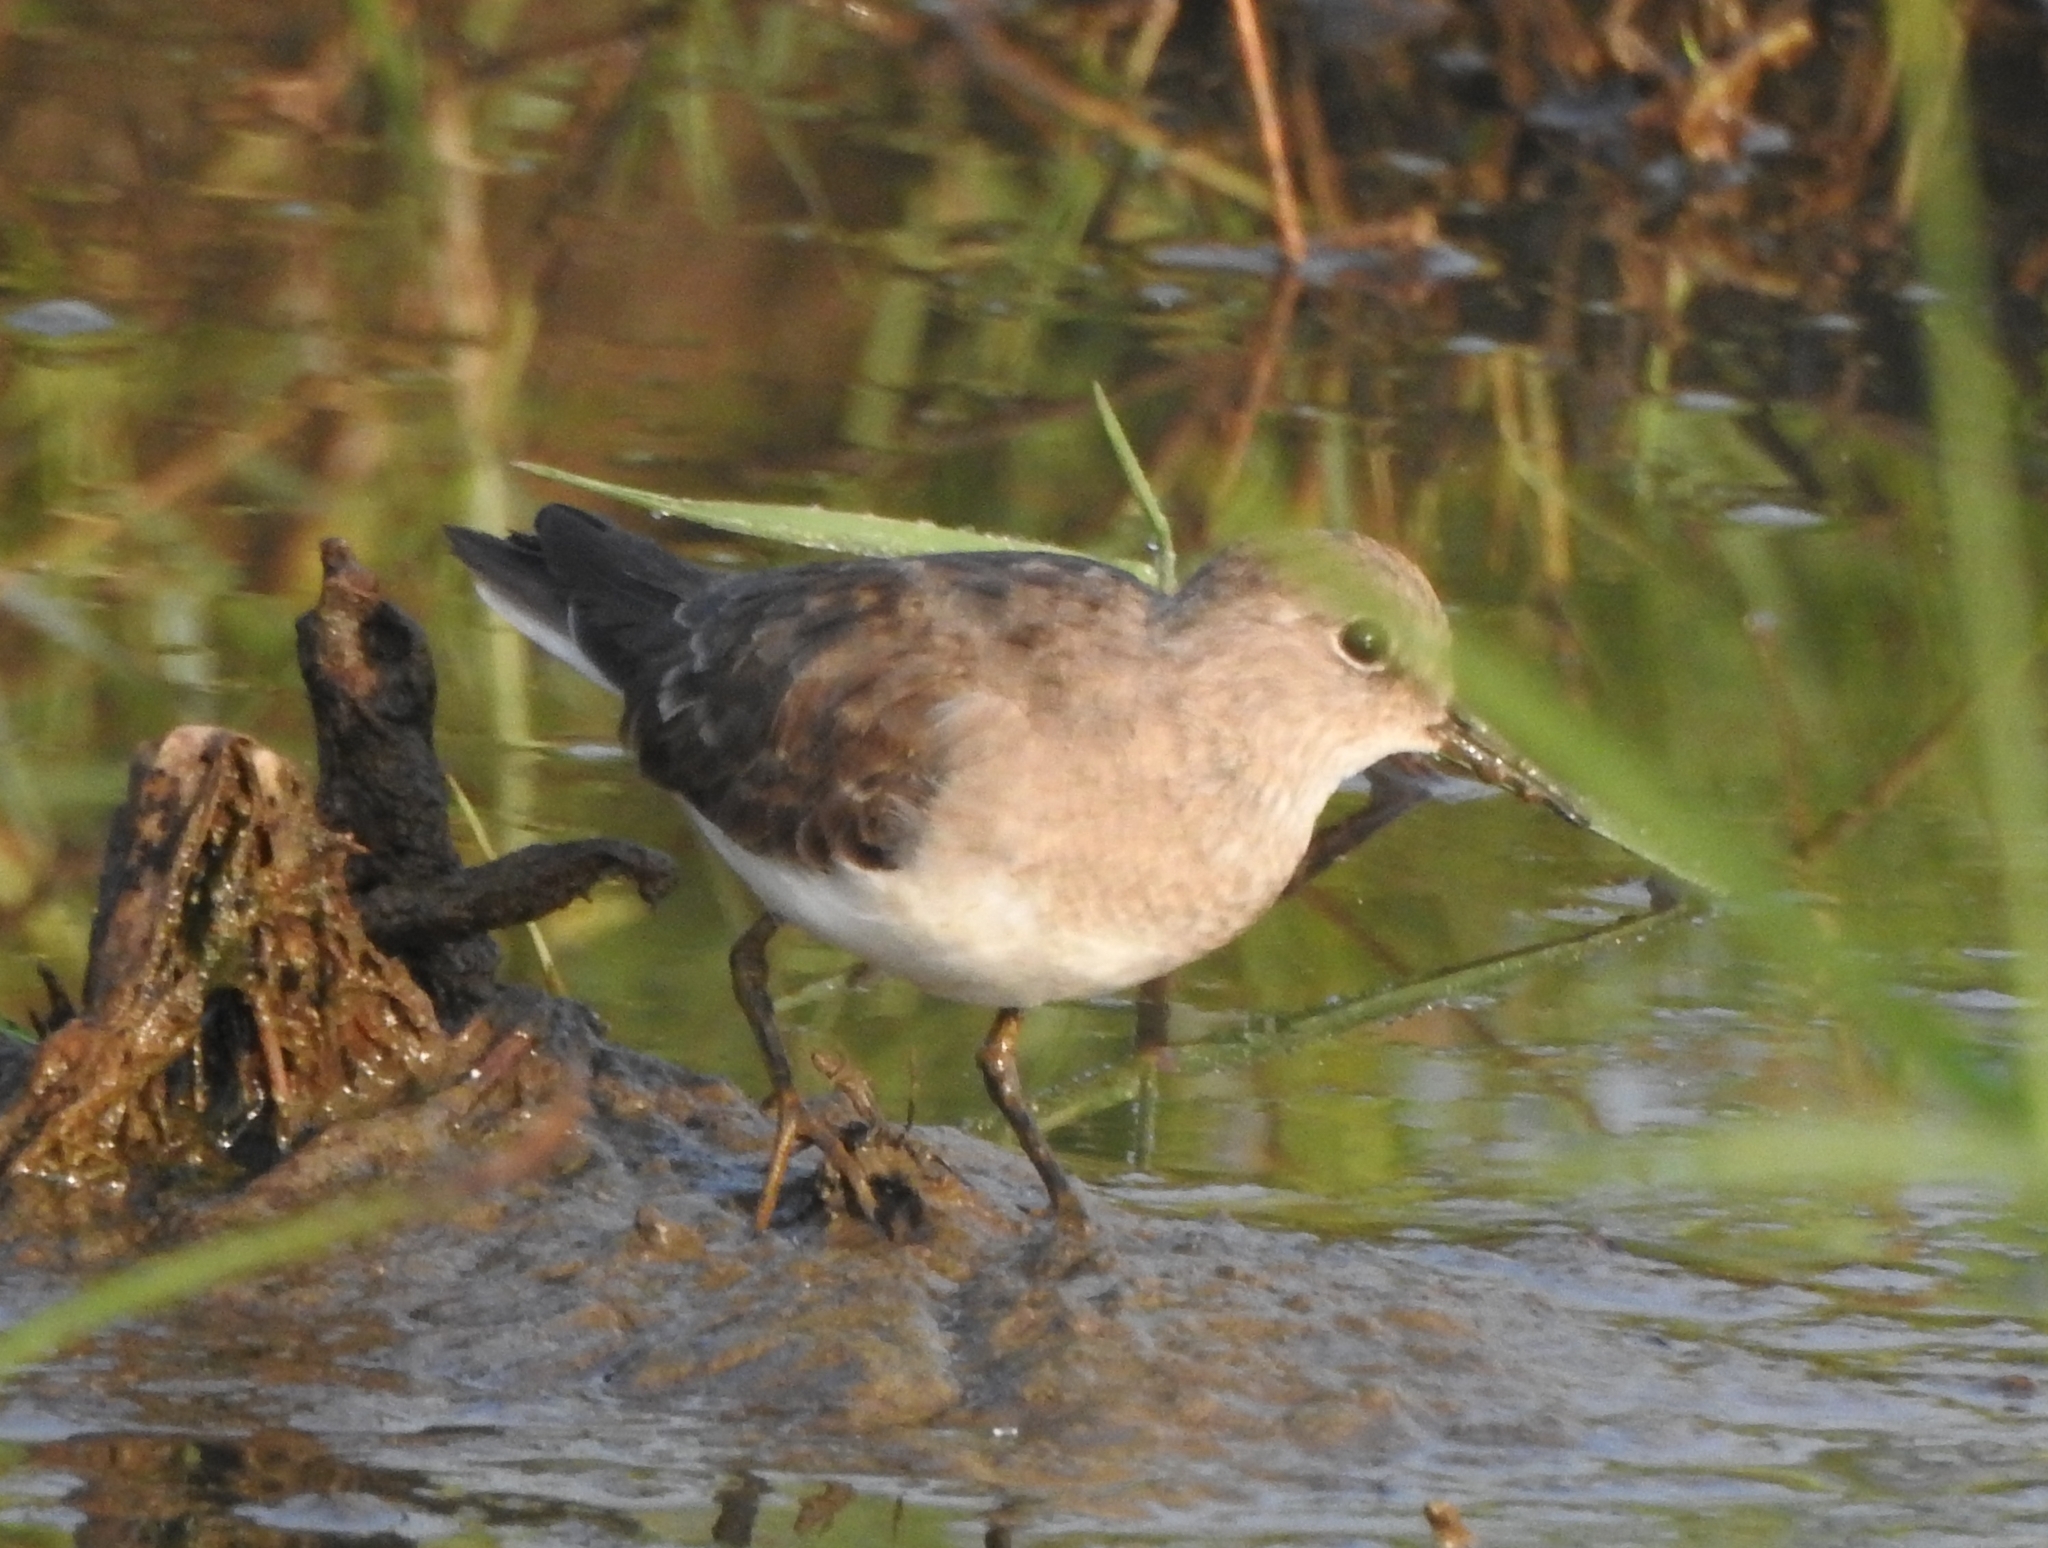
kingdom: Animalia
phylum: Chordata
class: Aves
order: Charadriiformes
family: Scolopacidae
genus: Calidris
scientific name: Calidris temminckii
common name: Temminck's stint
